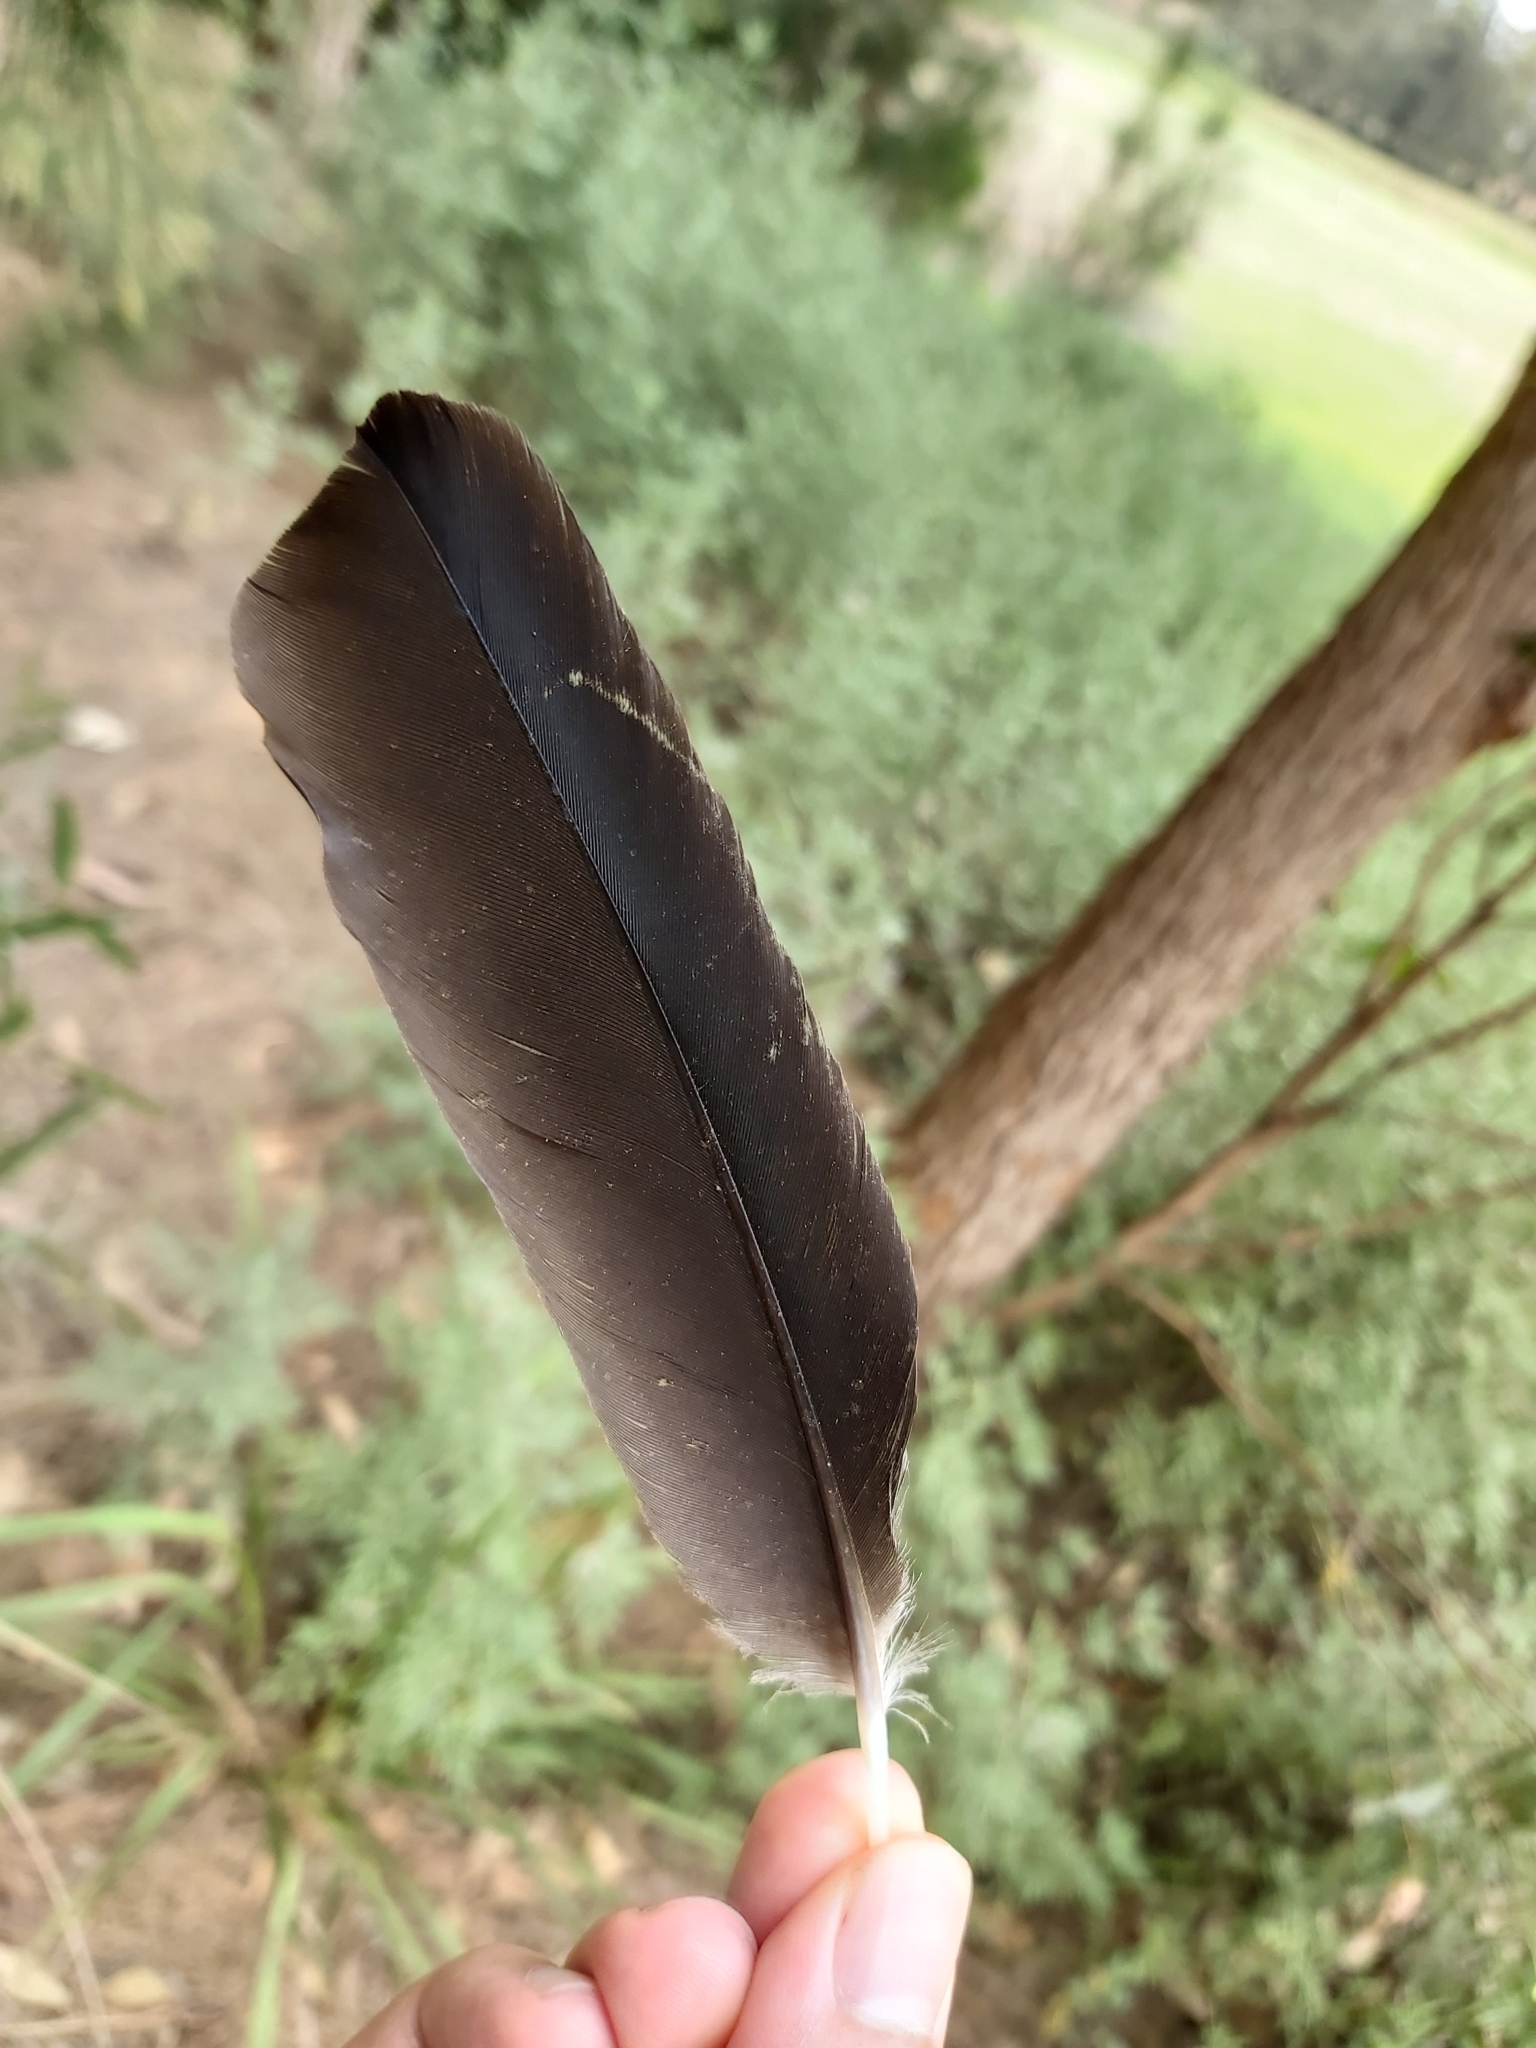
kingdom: Animalia
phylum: Chordata
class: Aves
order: Passeriformes
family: Cracticidae
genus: Gymnorhina
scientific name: Gymnorhina tibicen
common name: Australian magpie
